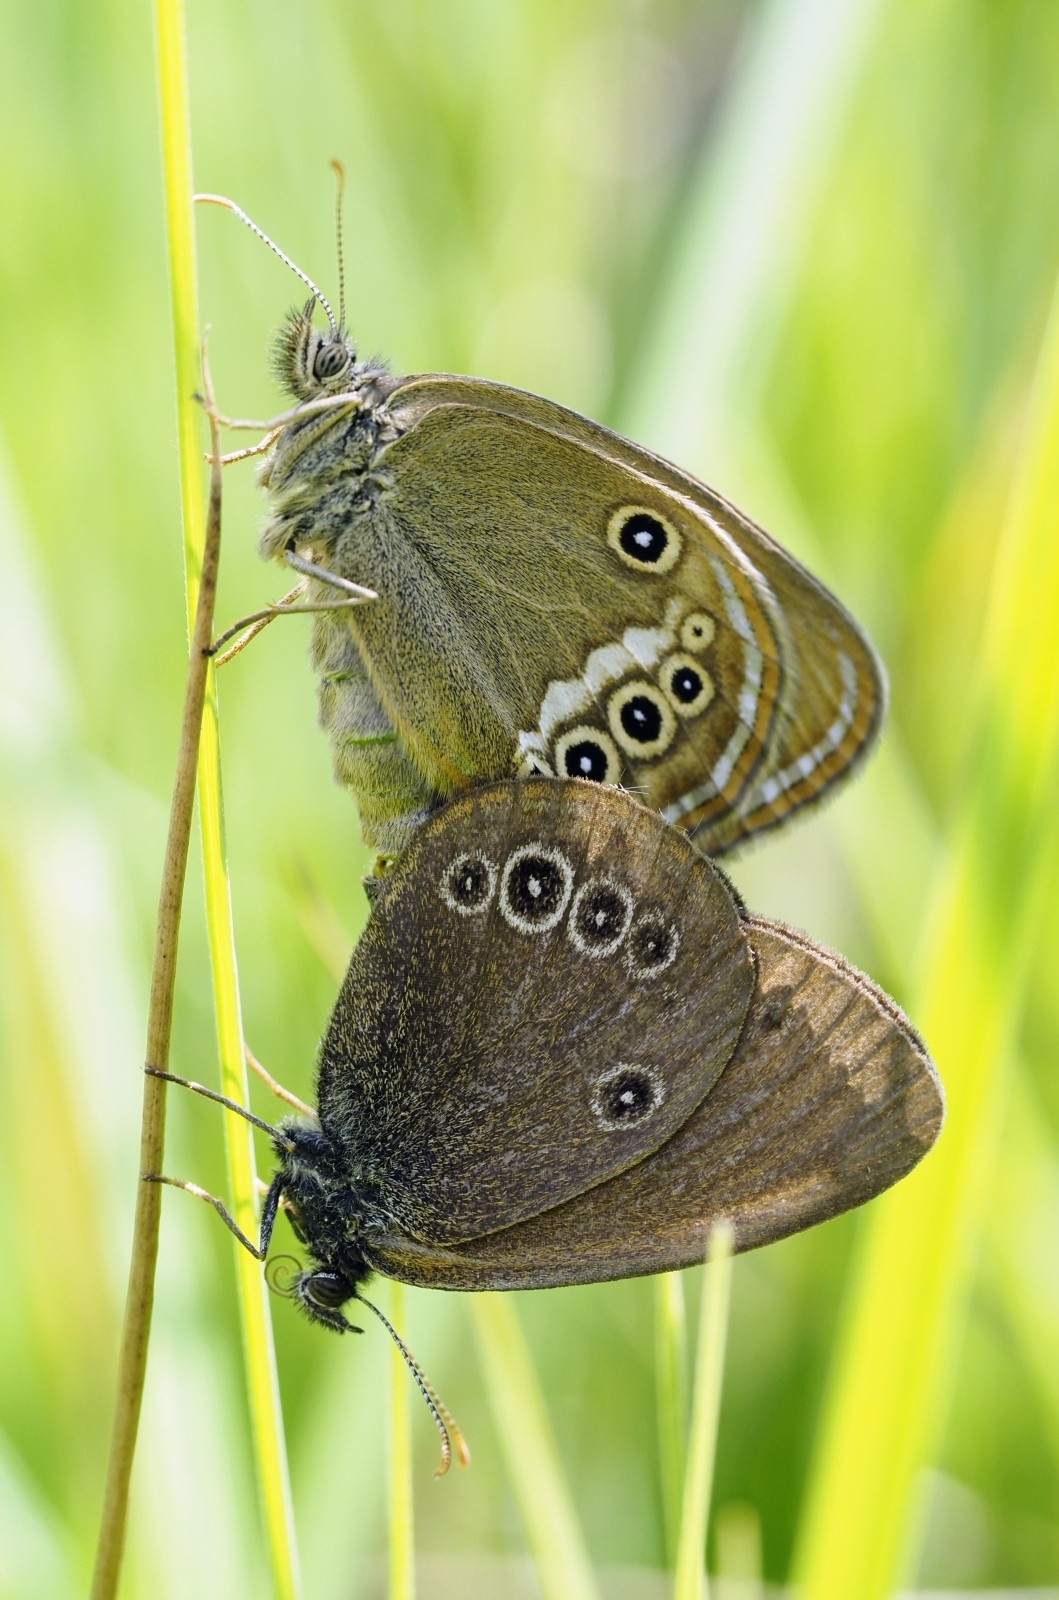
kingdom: Animalia
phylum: Arthropoda
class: Insecta
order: Lepidoptera
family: Nymphalidae
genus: Coenonympha
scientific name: Coenonympha oedippus
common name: False ringlet
